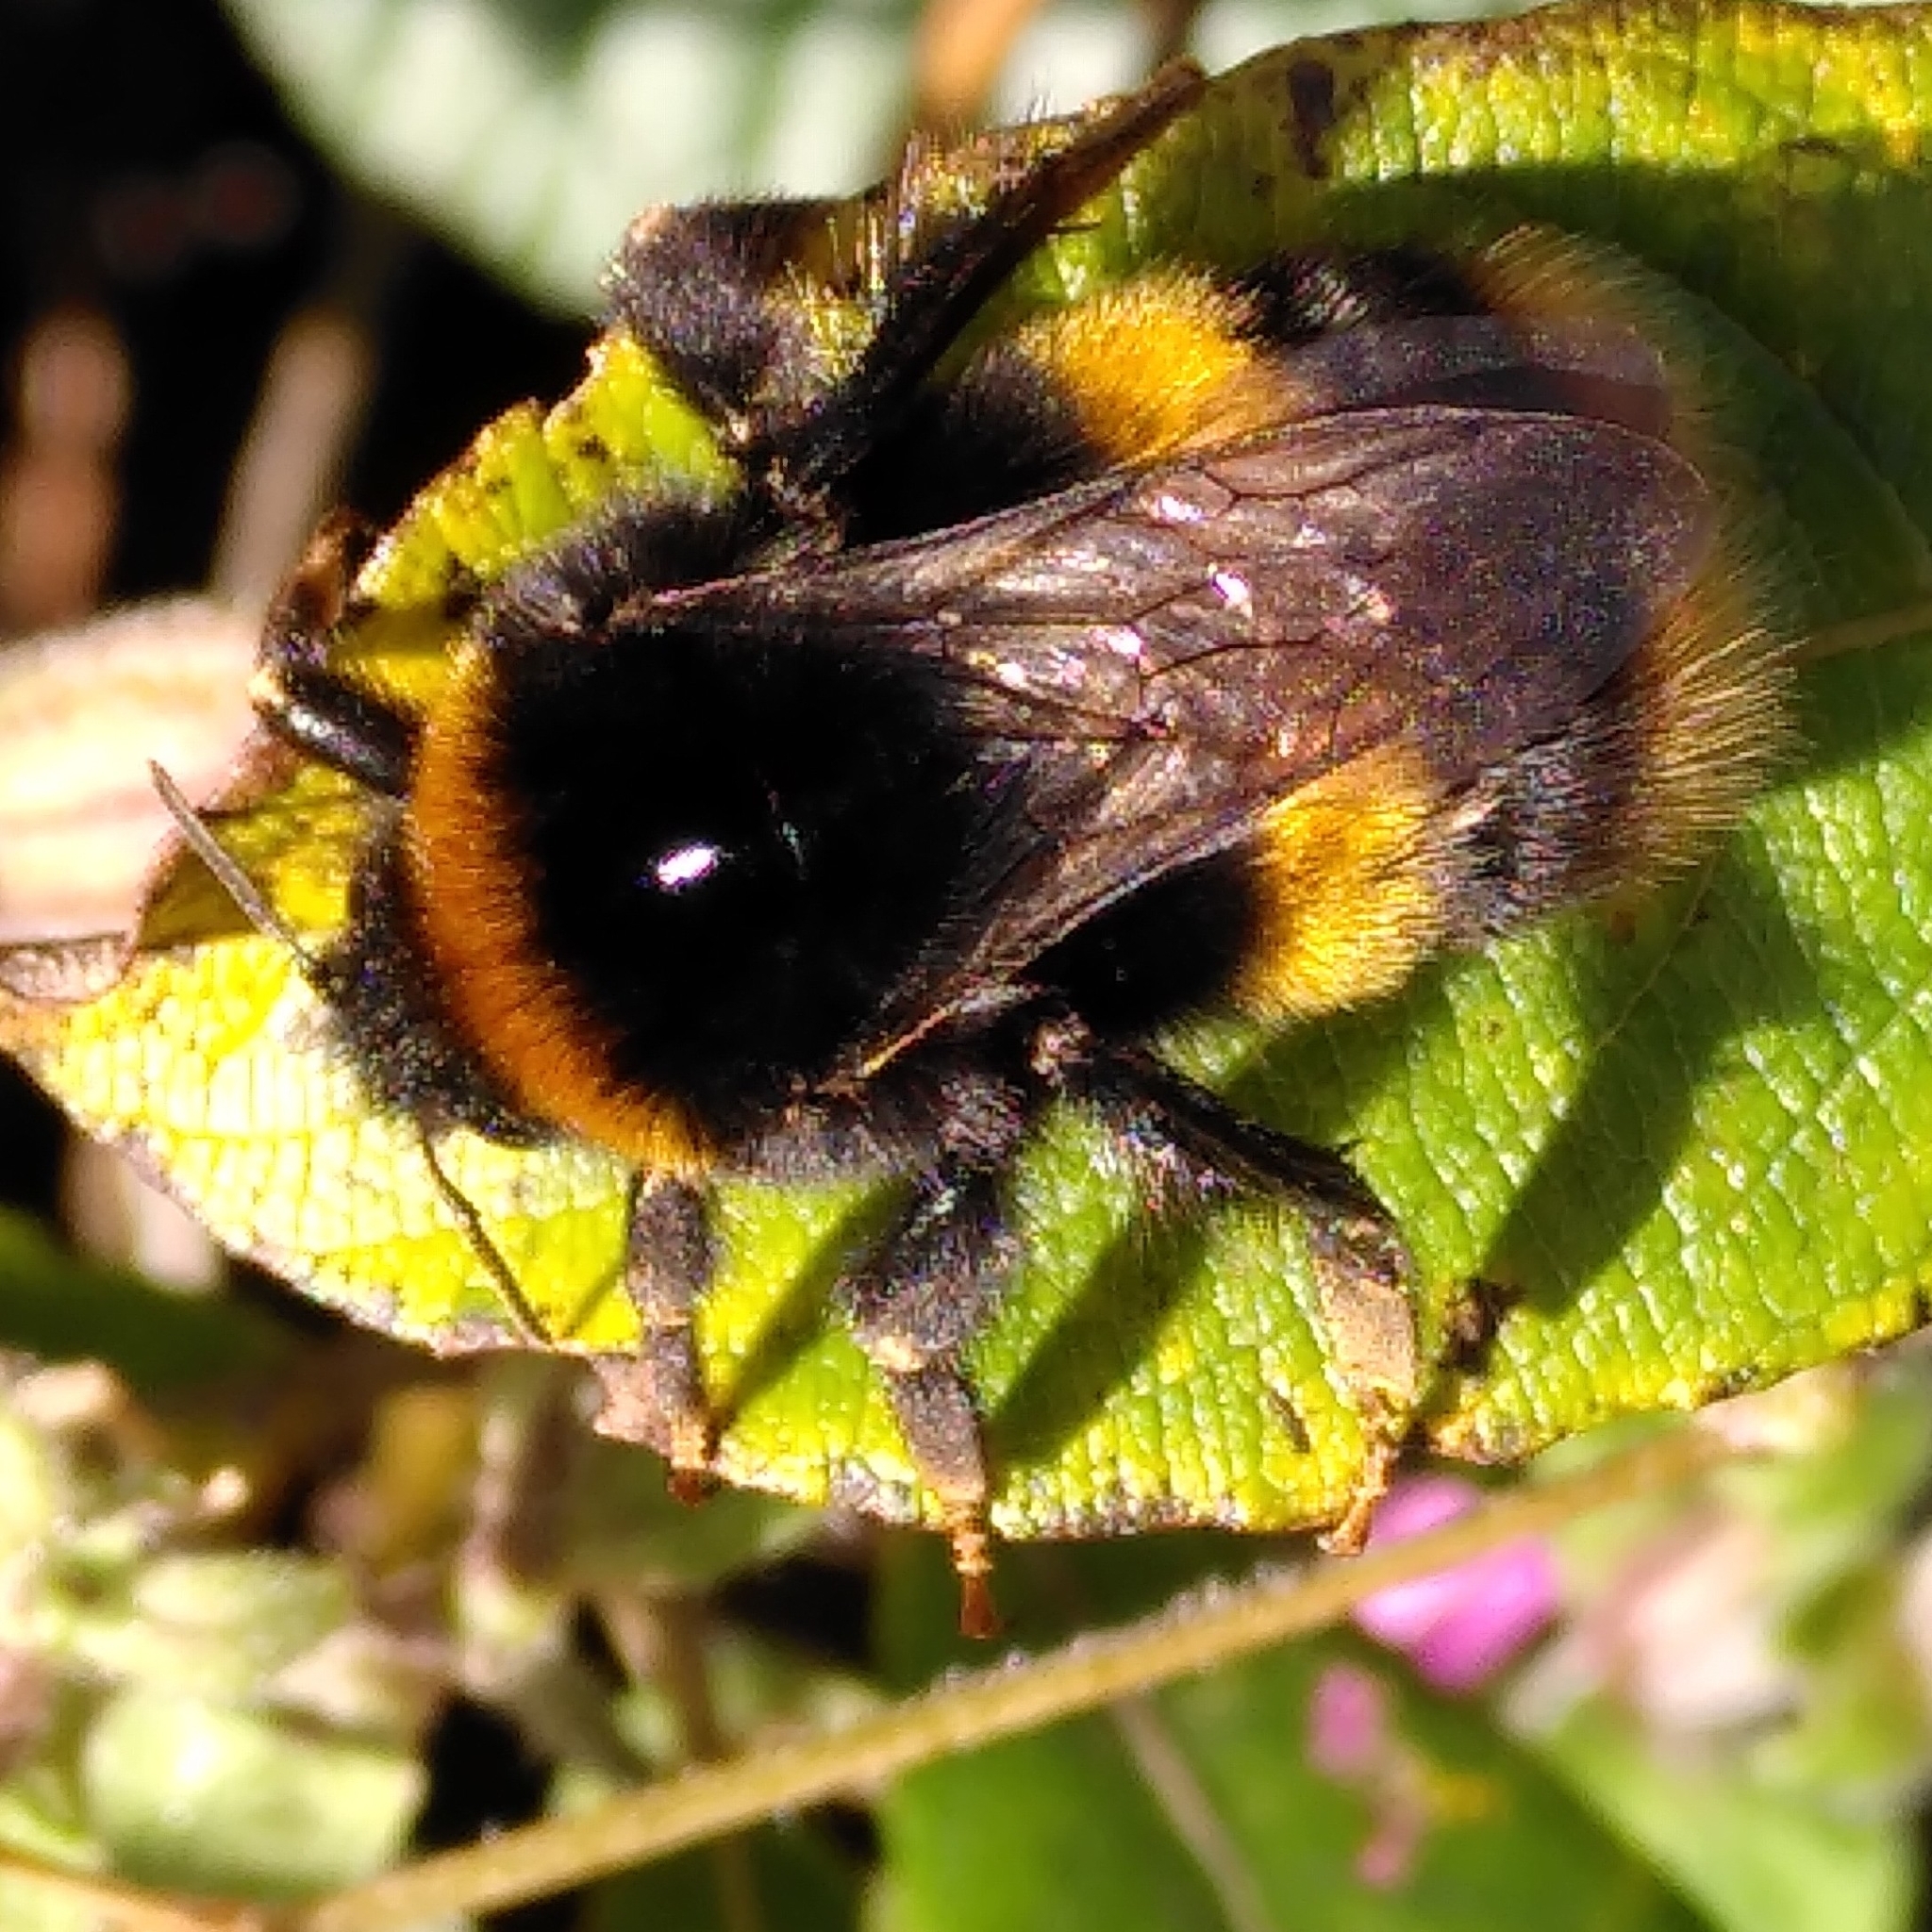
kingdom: Animalia
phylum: Arthropoda
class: Insecta
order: Hymenoptera
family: Apidae
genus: Bombus
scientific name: Bombus terrestris
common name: Buff-tailed bumblebee
